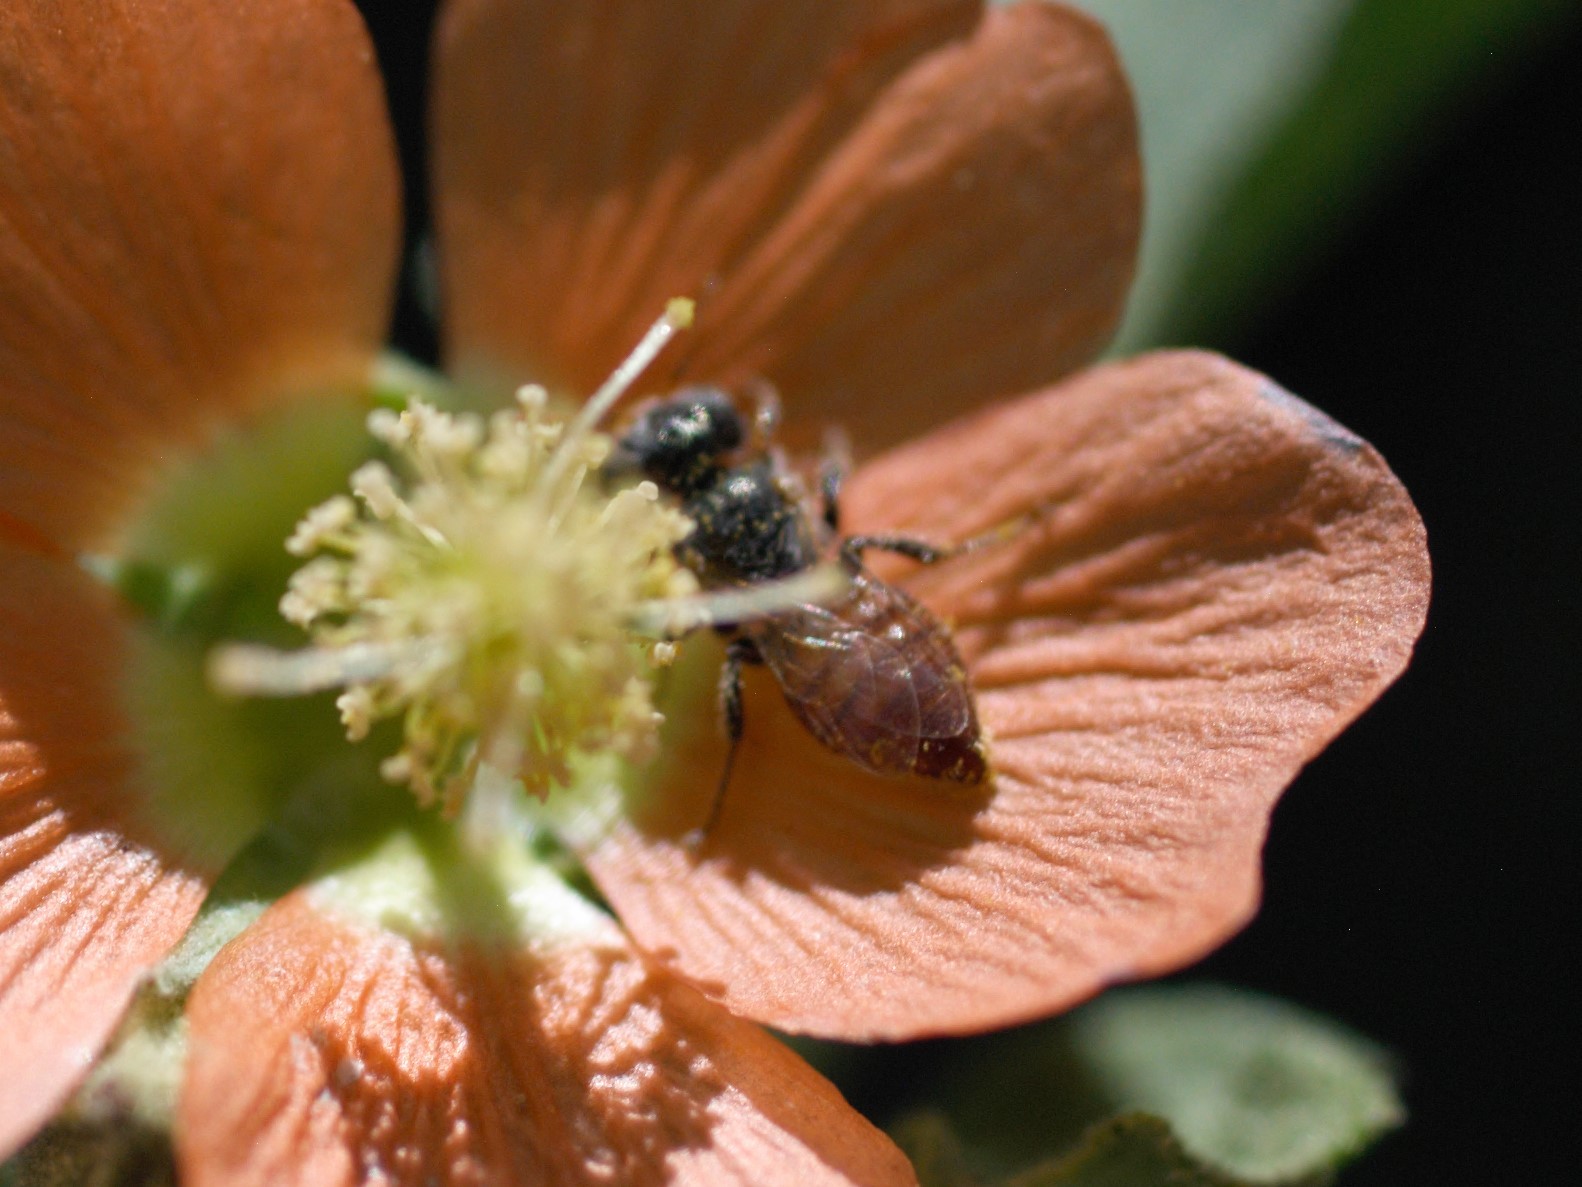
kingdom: Animalia
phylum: Arthropoda
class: Insecta
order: Hymenoptera
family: Andrenidae
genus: Macrotera
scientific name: Macrotera latior
